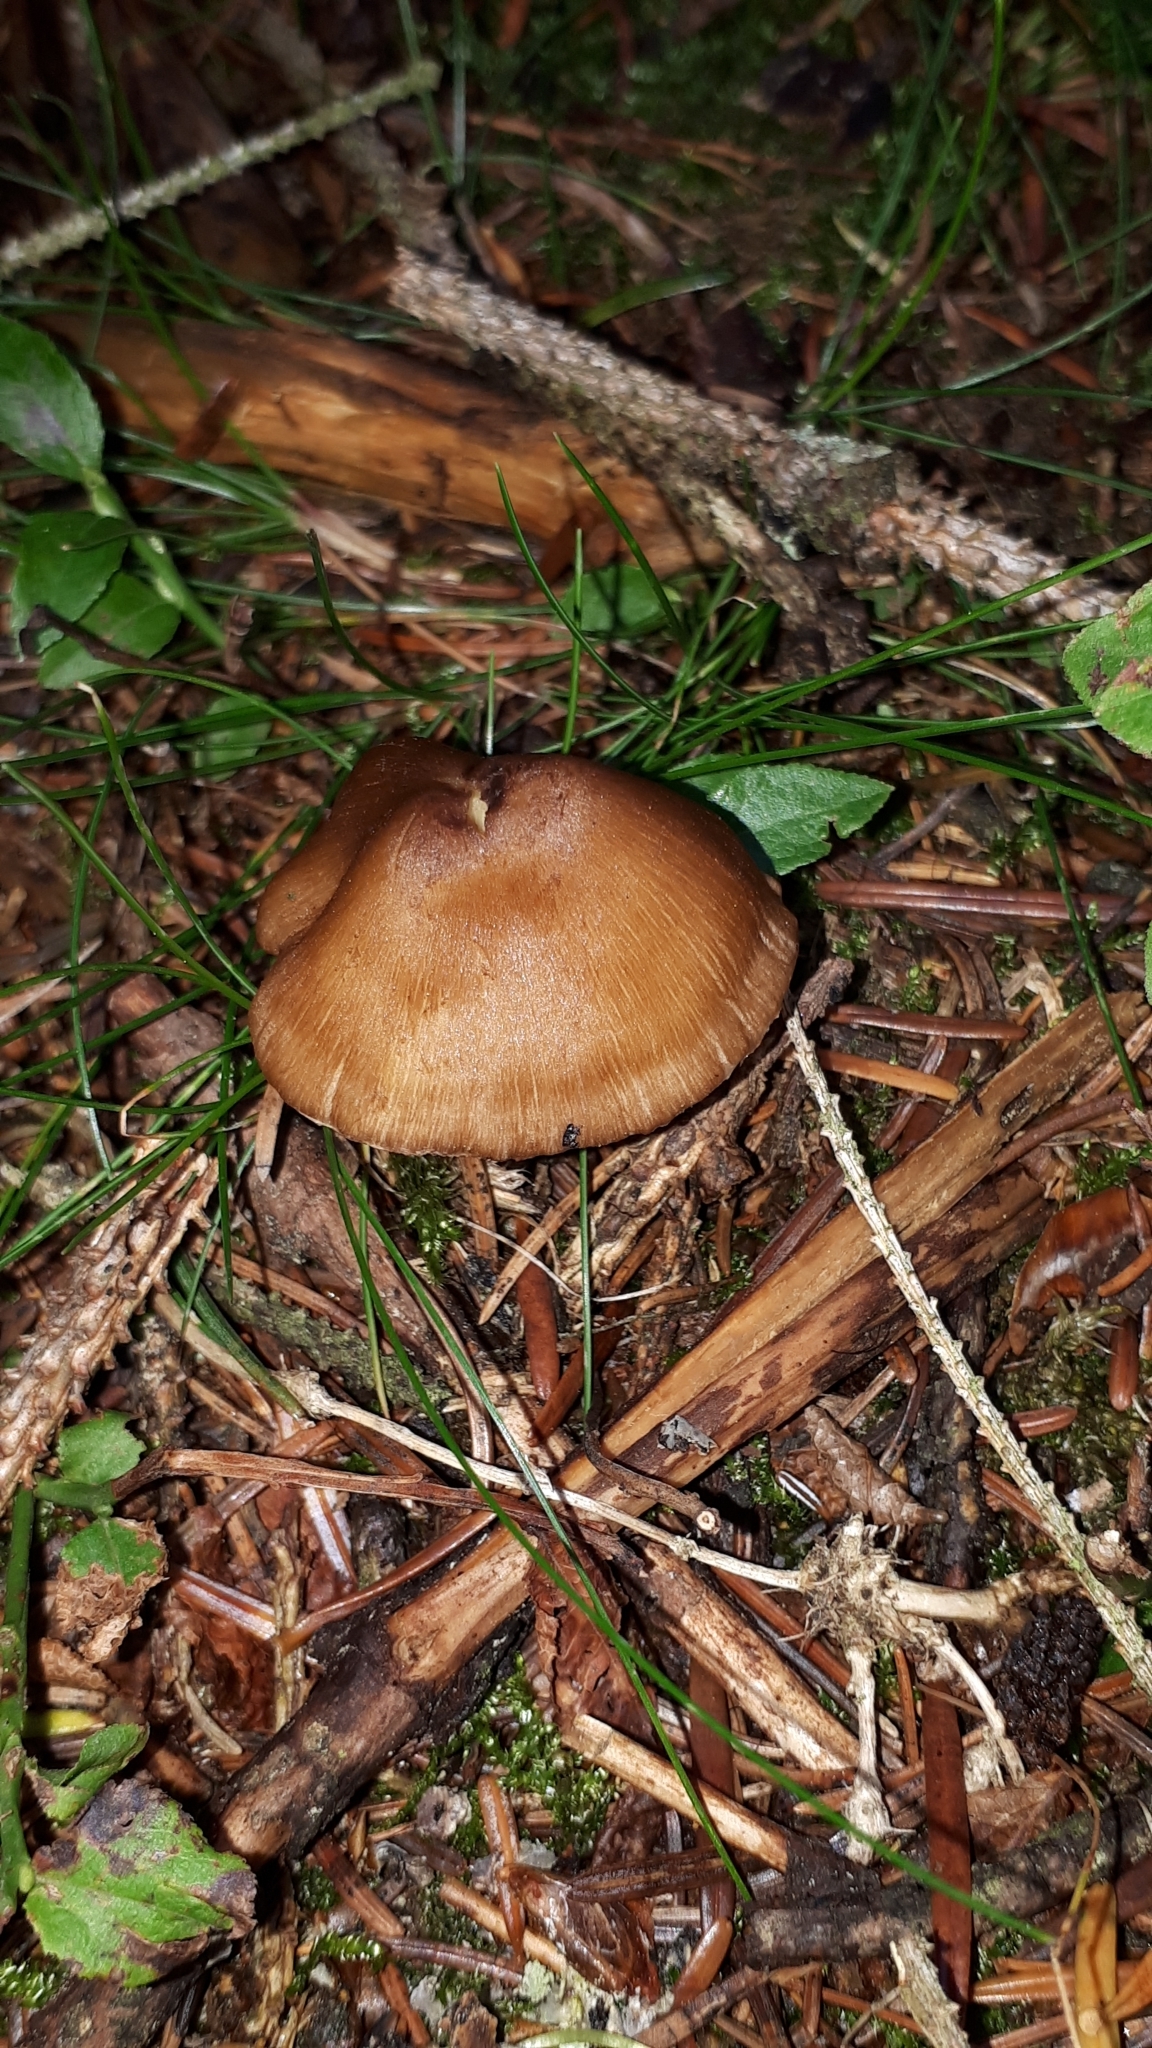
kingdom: Fungi
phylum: Basidiomycota
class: Agaricomycetes
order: Agaricales
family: Tricholomataceae
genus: Megacollybia
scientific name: Megacollybia platyphylla
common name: Whitelaced shank
